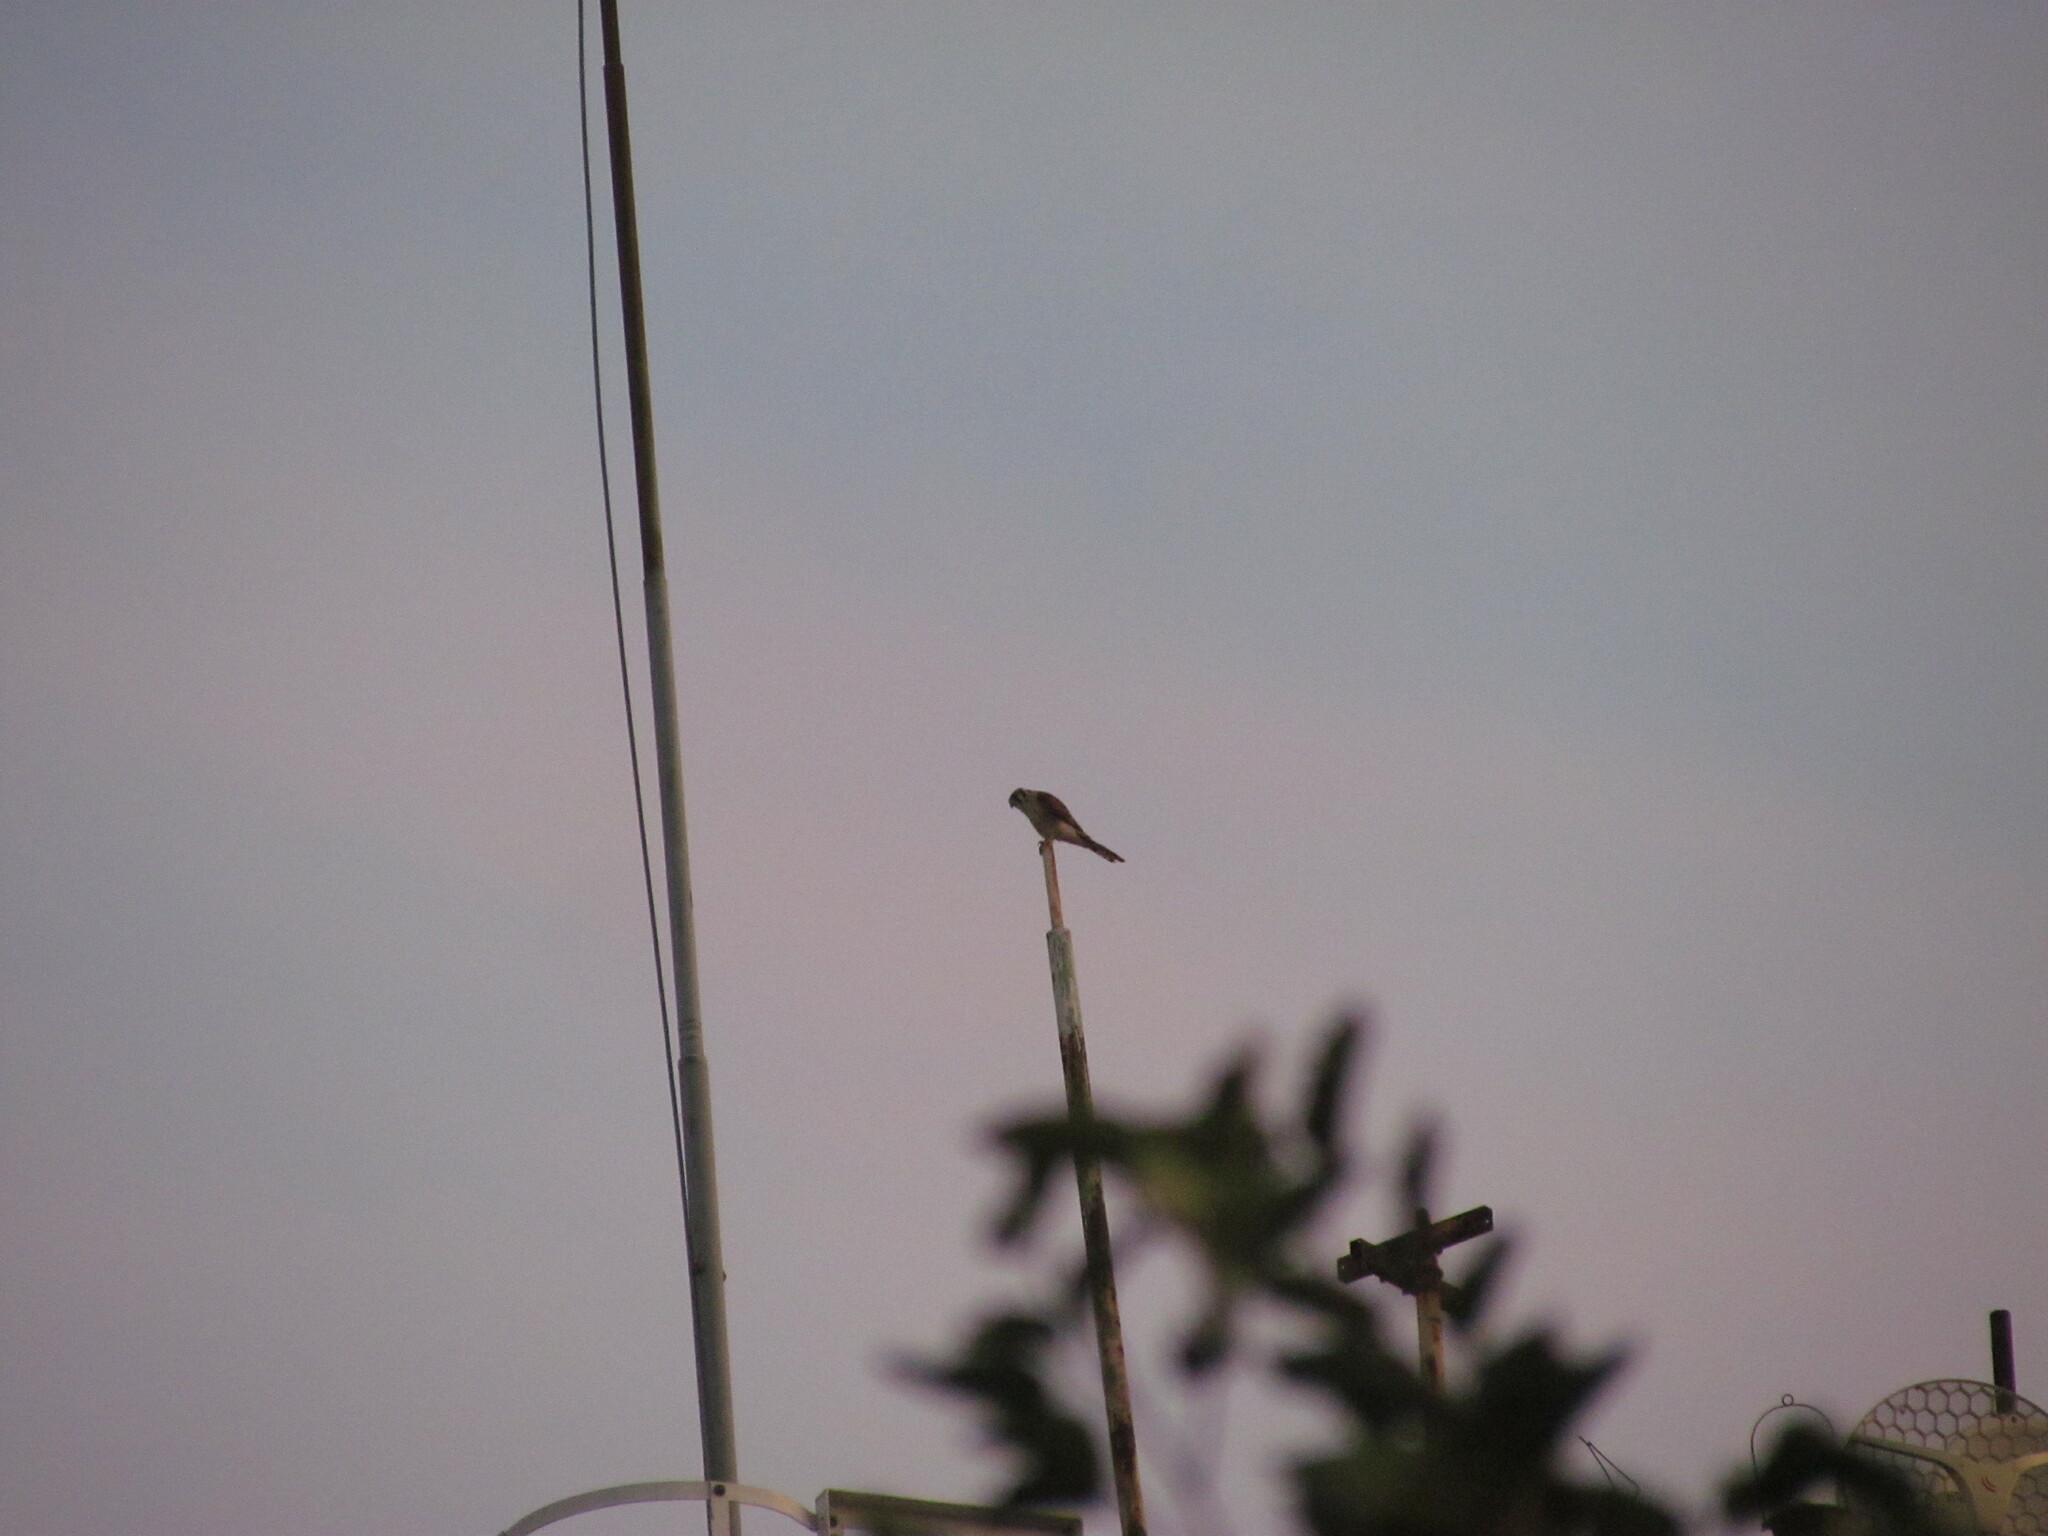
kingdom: Animalia
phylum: Chordata
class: Aves
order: Falconiformes
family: Falconidae
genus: Falco
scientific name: Falco sparverius
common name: American kestrel
